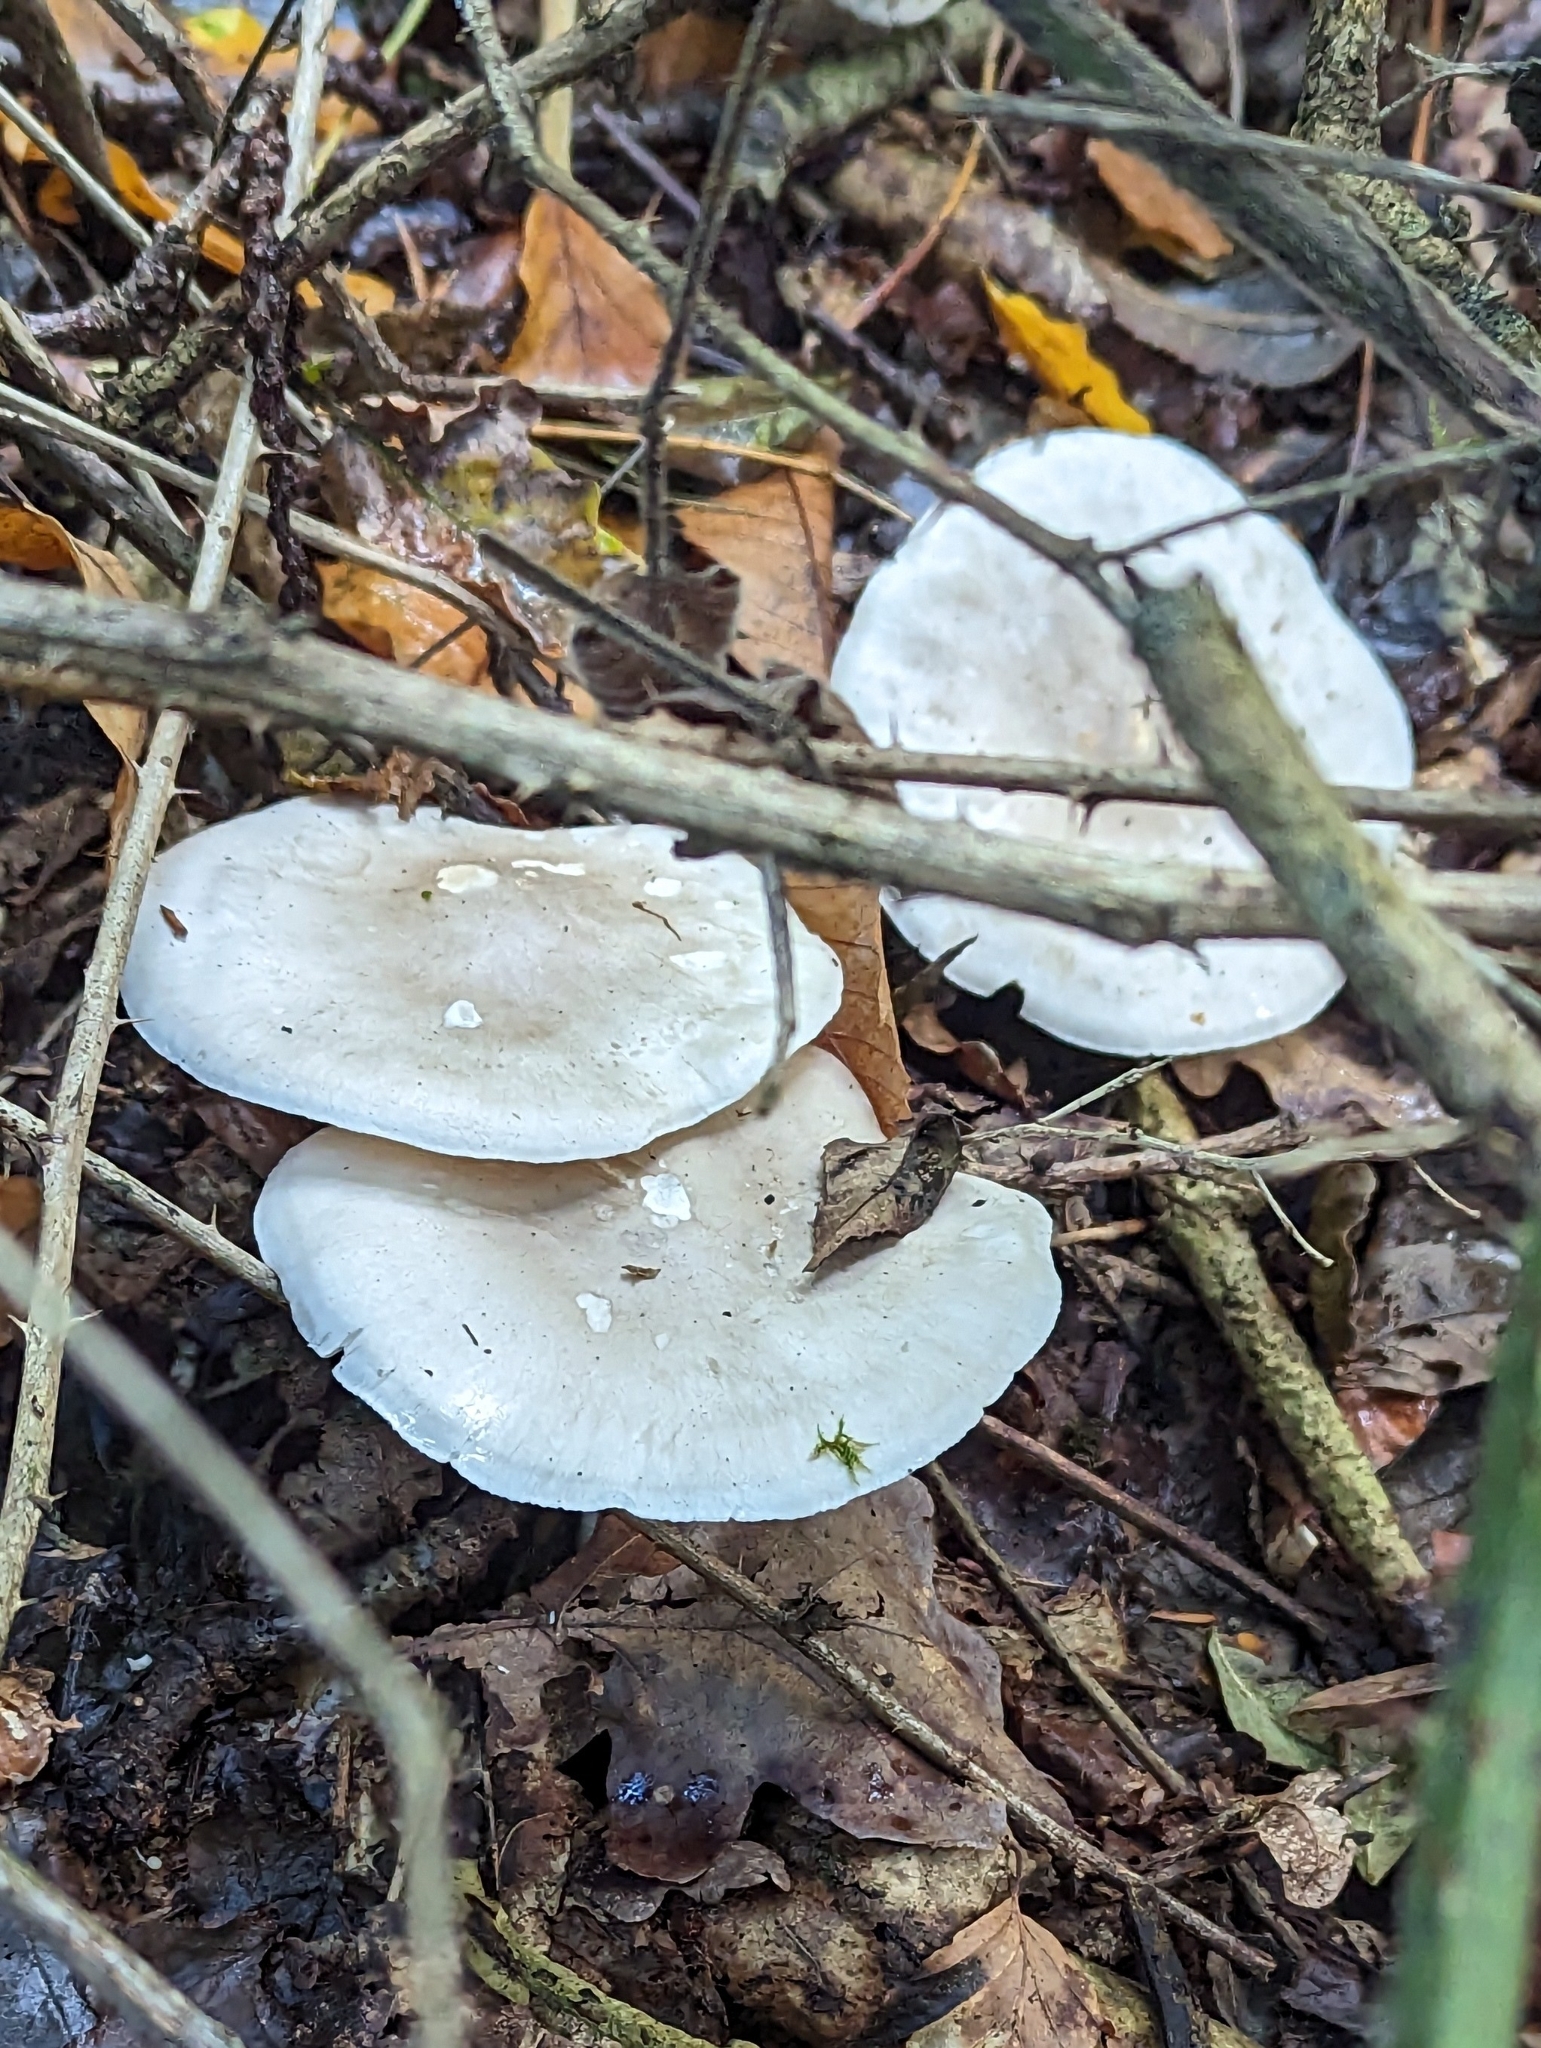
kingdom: Fungi
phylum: Basidiomycota
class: Agaricomycetes
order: Agaricales
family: Tricholomataceae
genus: Clitocybe
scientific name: Clitocybe nebularis
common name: Clouded agaric
